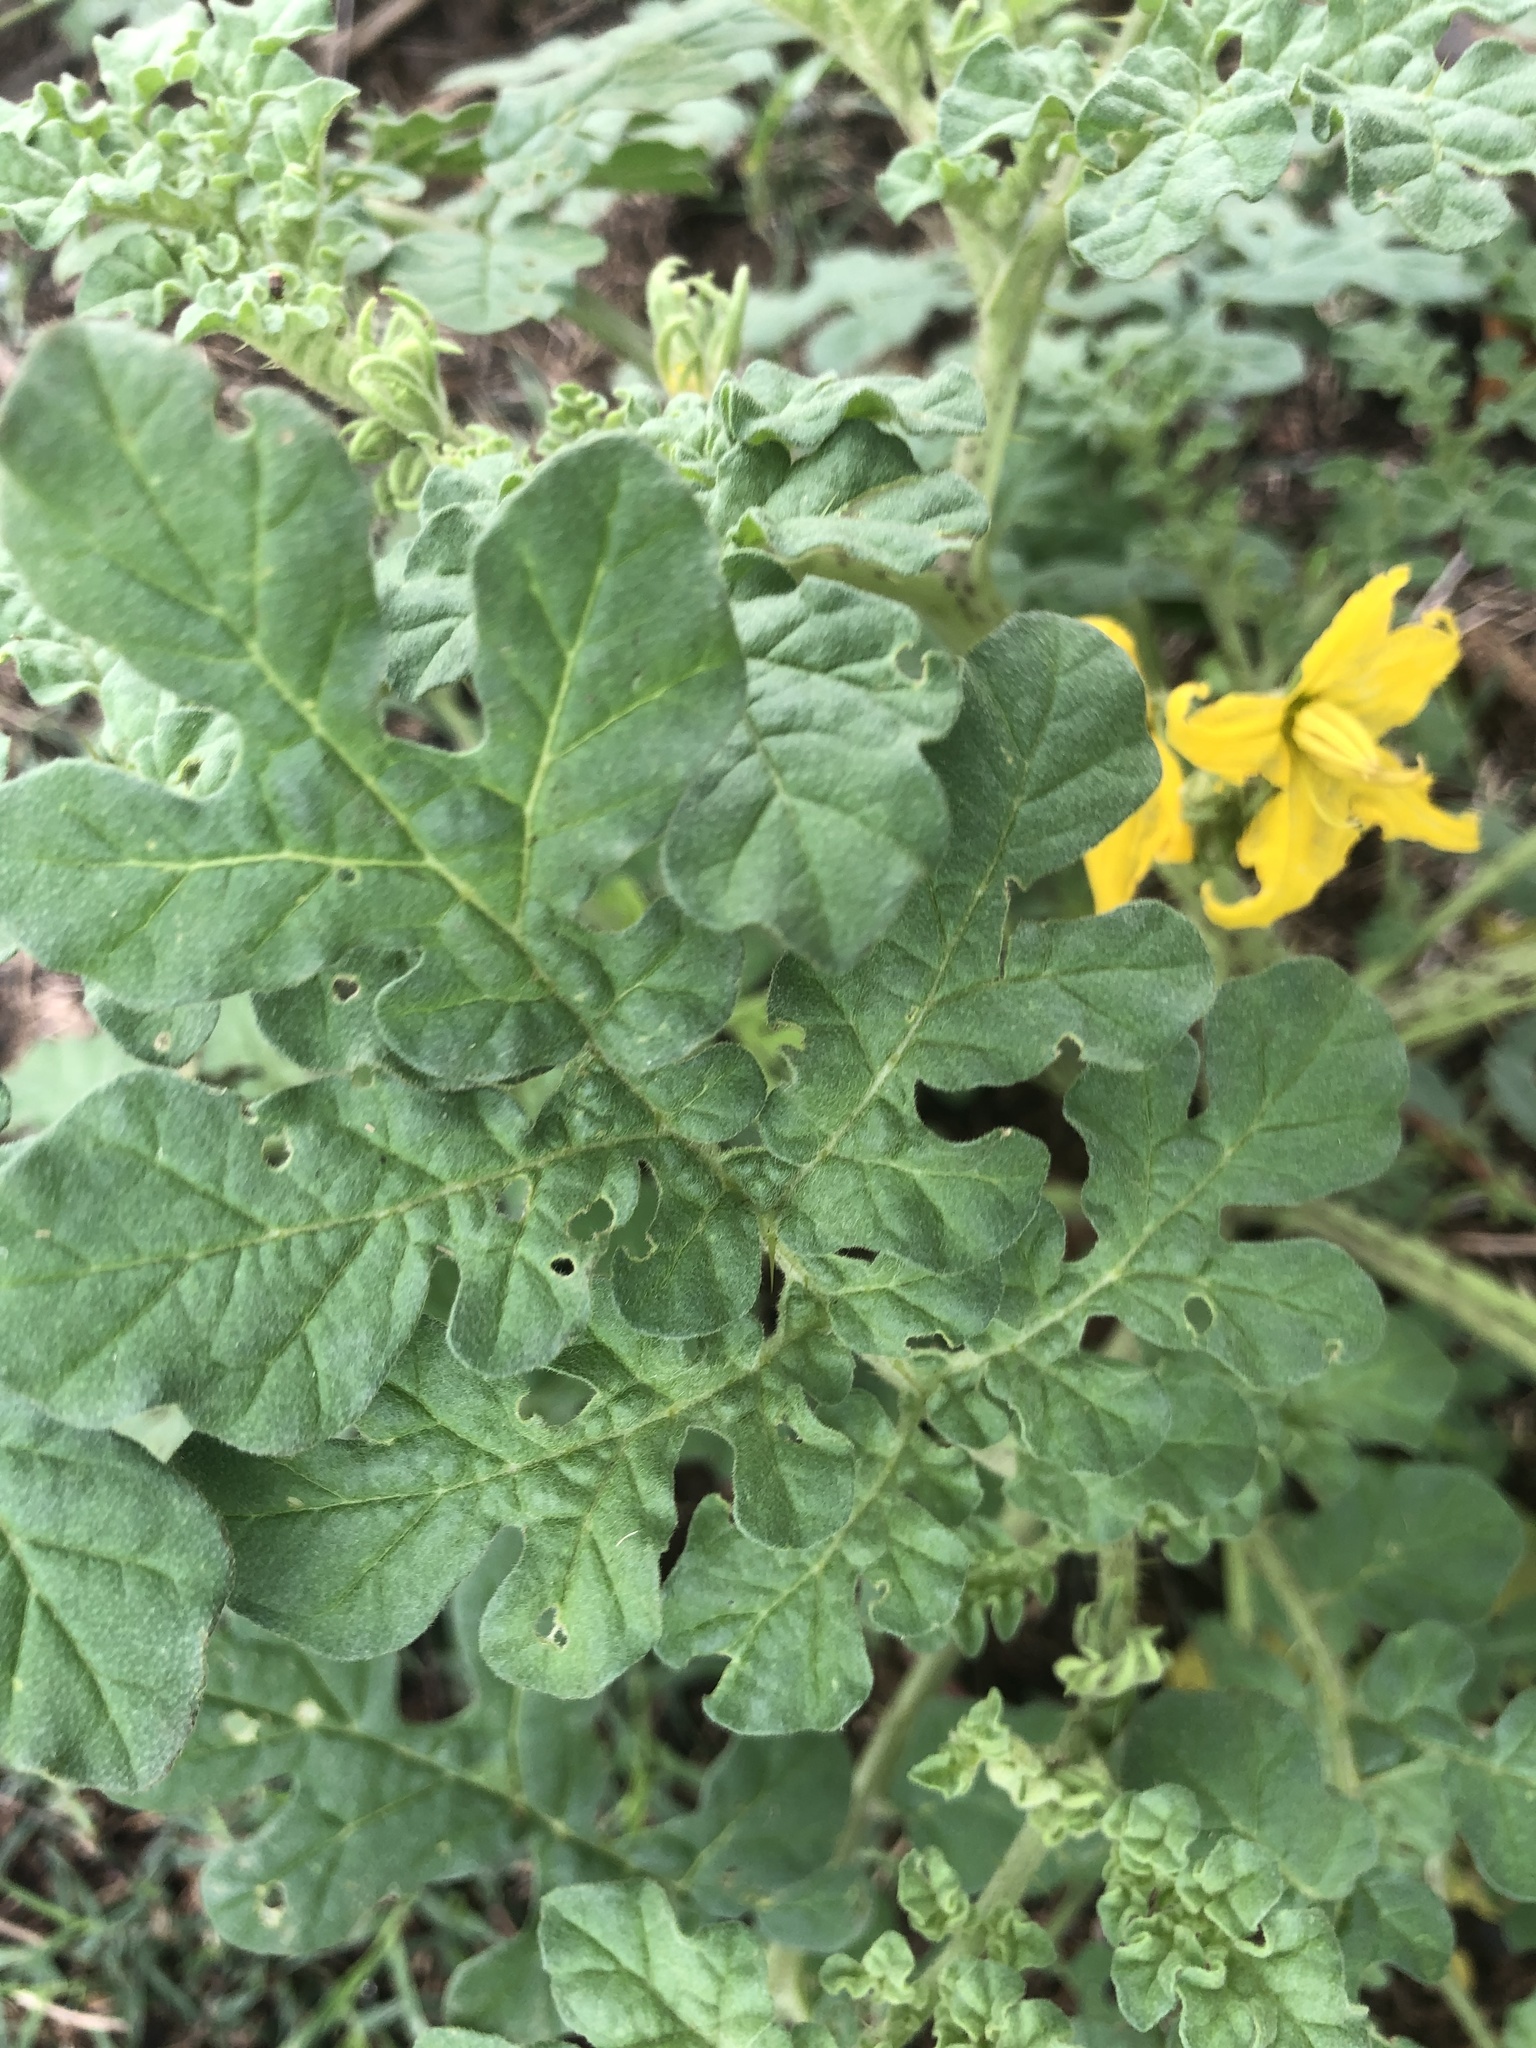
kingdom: Plantae
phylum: Tracheophyta
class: Magnoliopsida
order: Solanales
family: Solanaceae
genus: Solanum
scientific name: Solanum angustifolium
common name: Buffalobur nightshade
